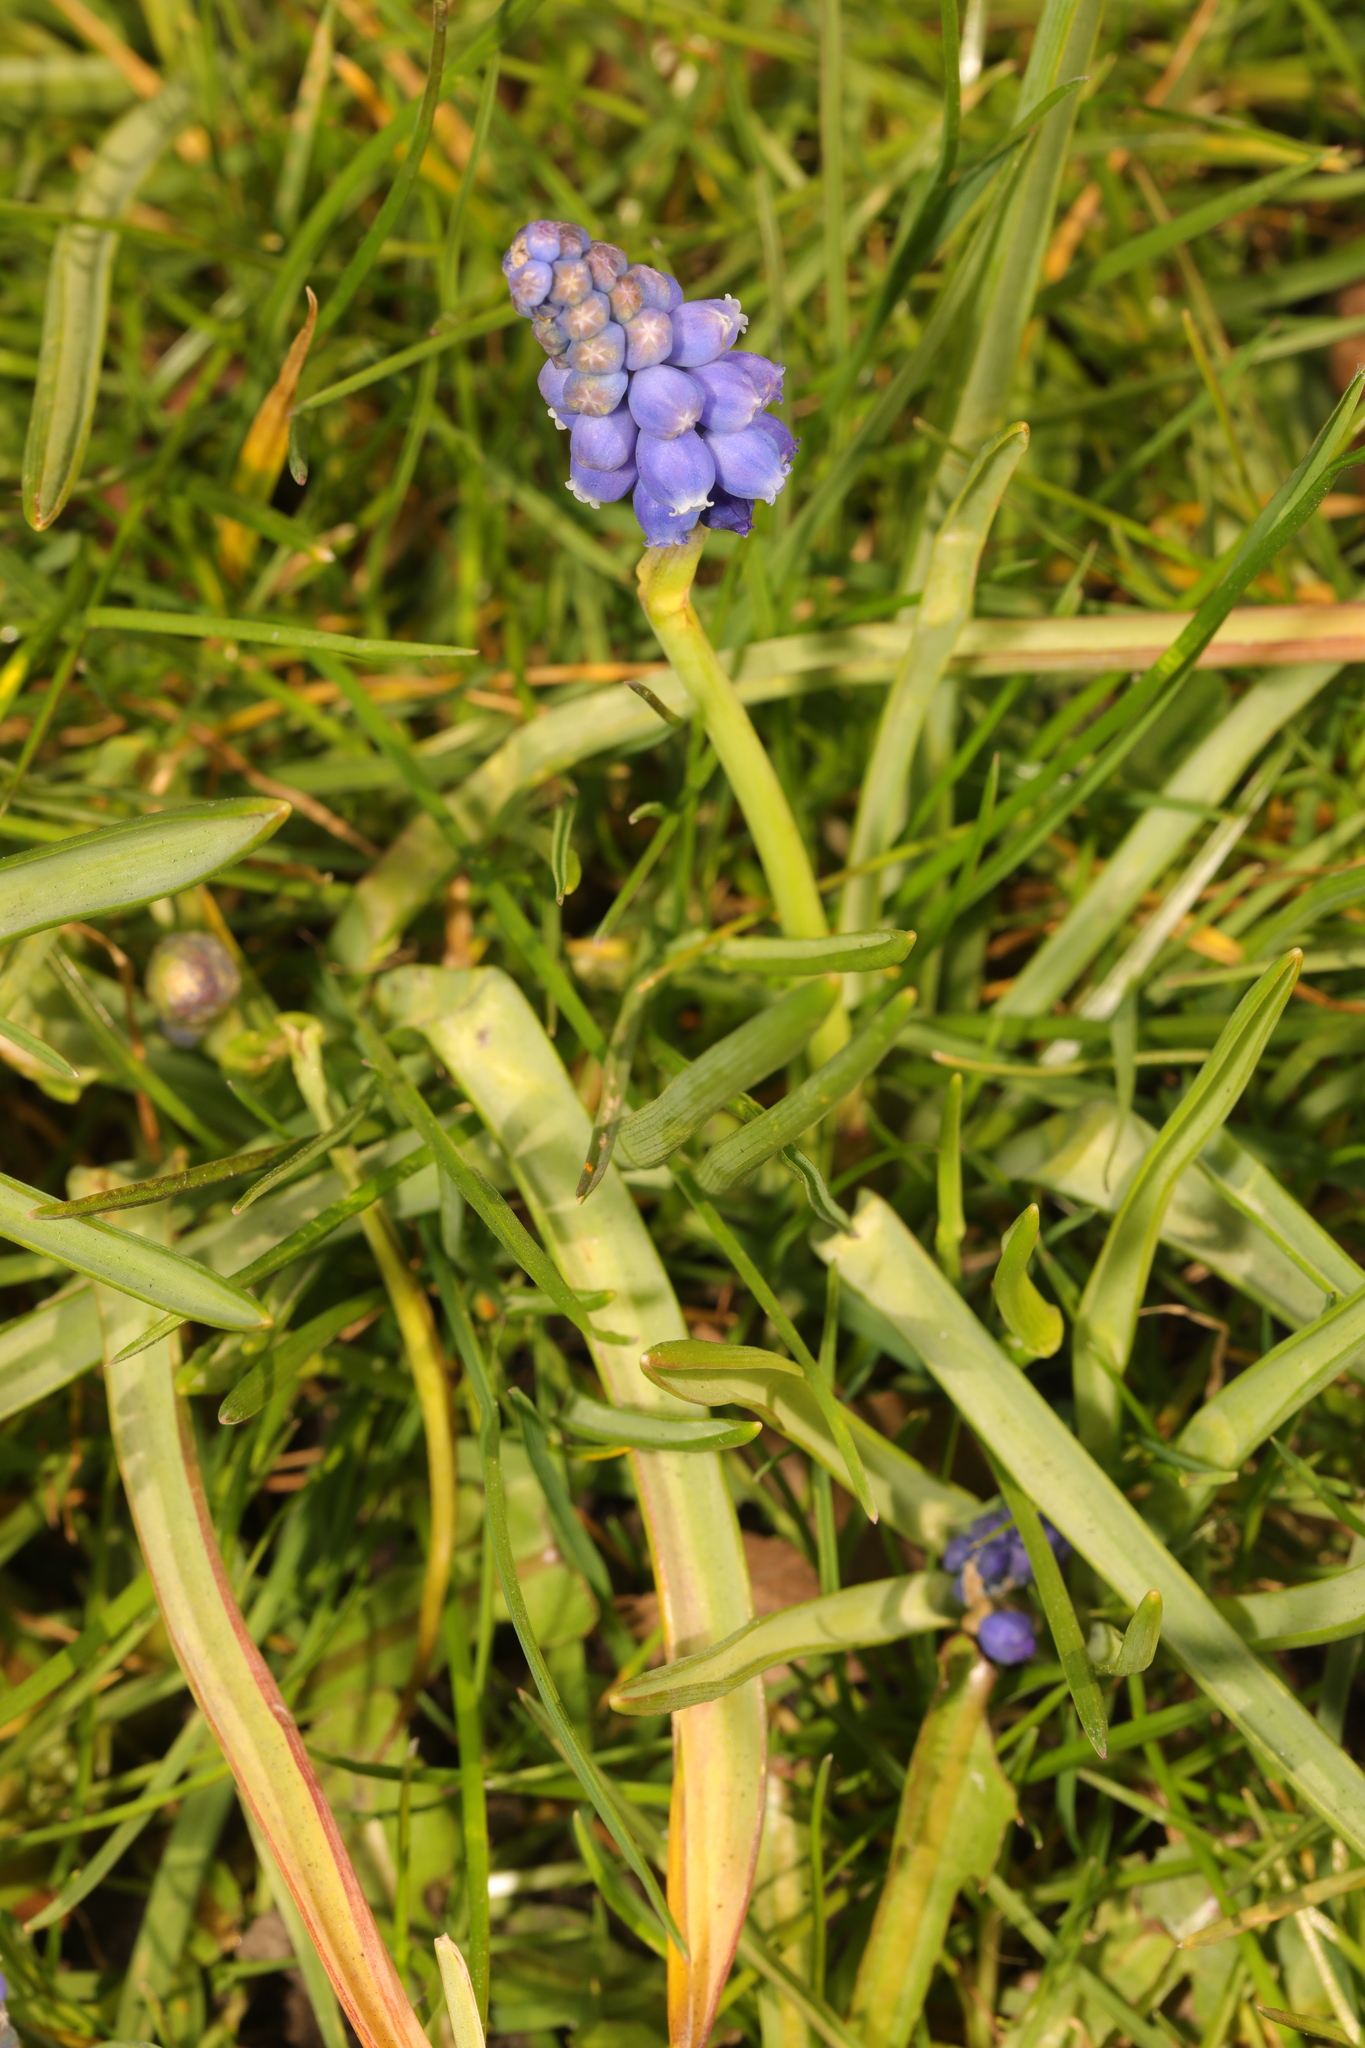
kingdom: Plantae
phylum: Tracheophyta
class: Liliopsida
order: Asparagales
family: Asparagaceae
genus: Muscari
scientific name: Muscari armeniacum
